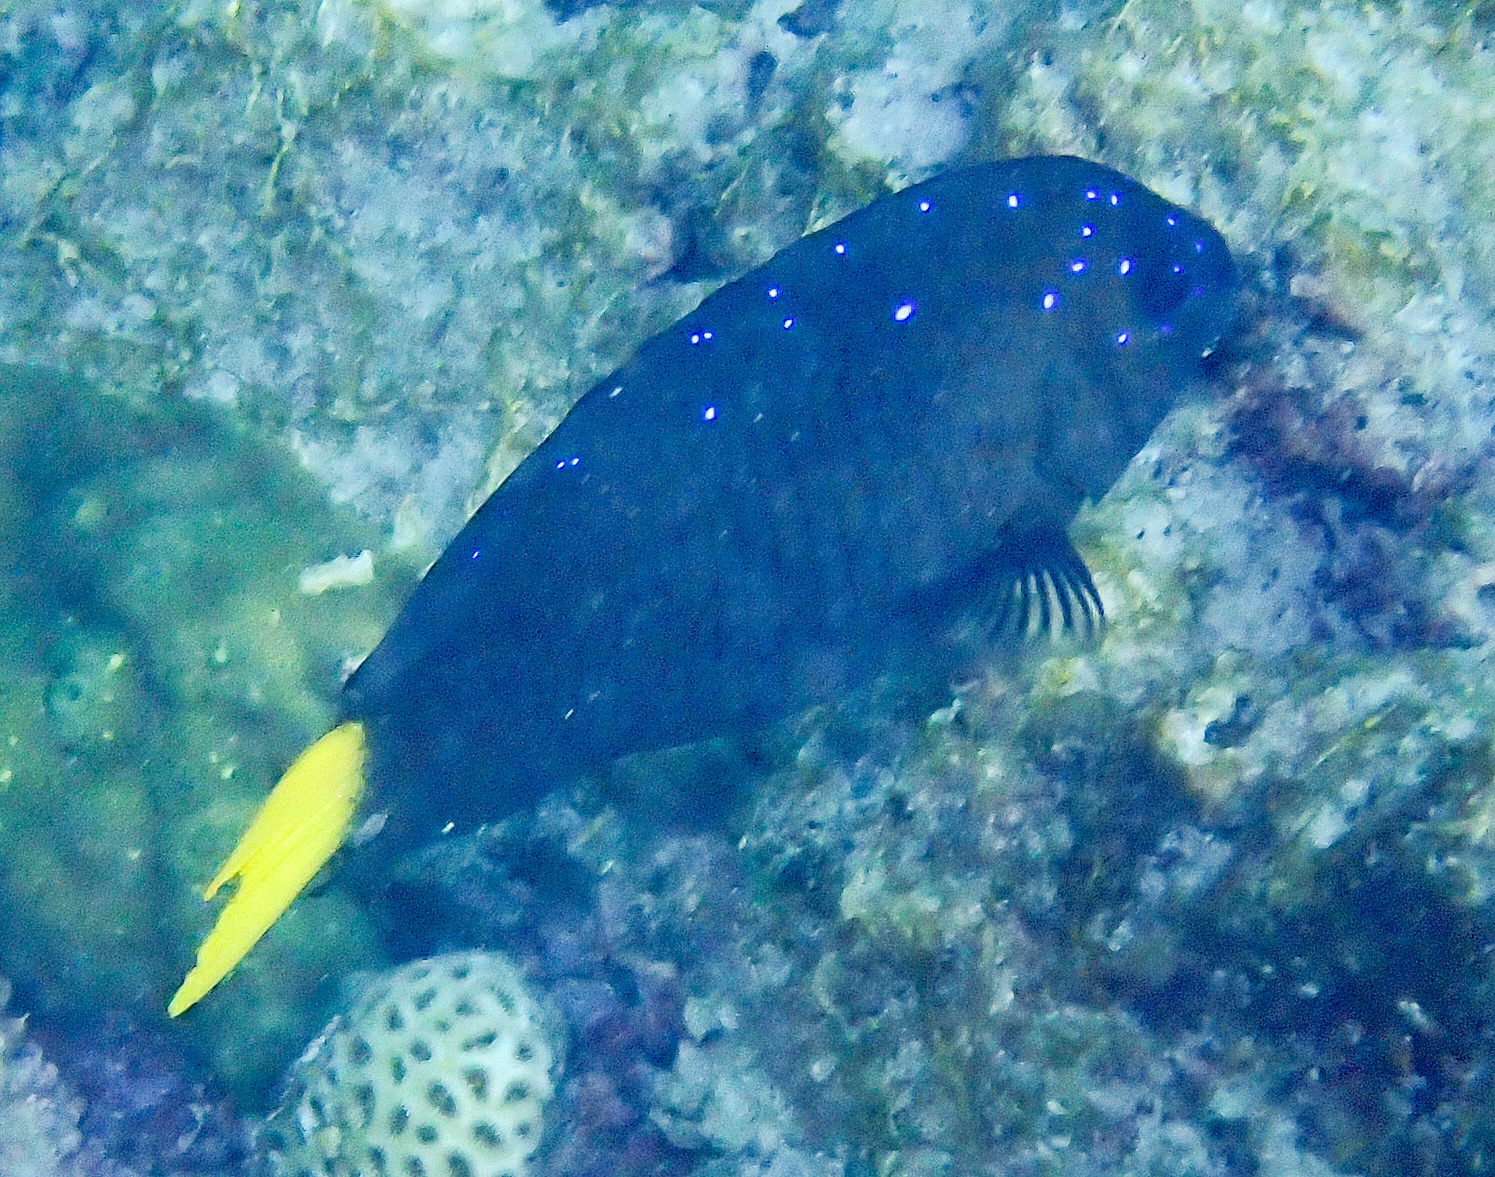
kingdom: Animalia
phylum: Chordata
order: Perciformes
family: Pomacentridae
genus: Microspathodon
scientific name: Microspathodon chrysurus
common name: Yellowtail damselfish
